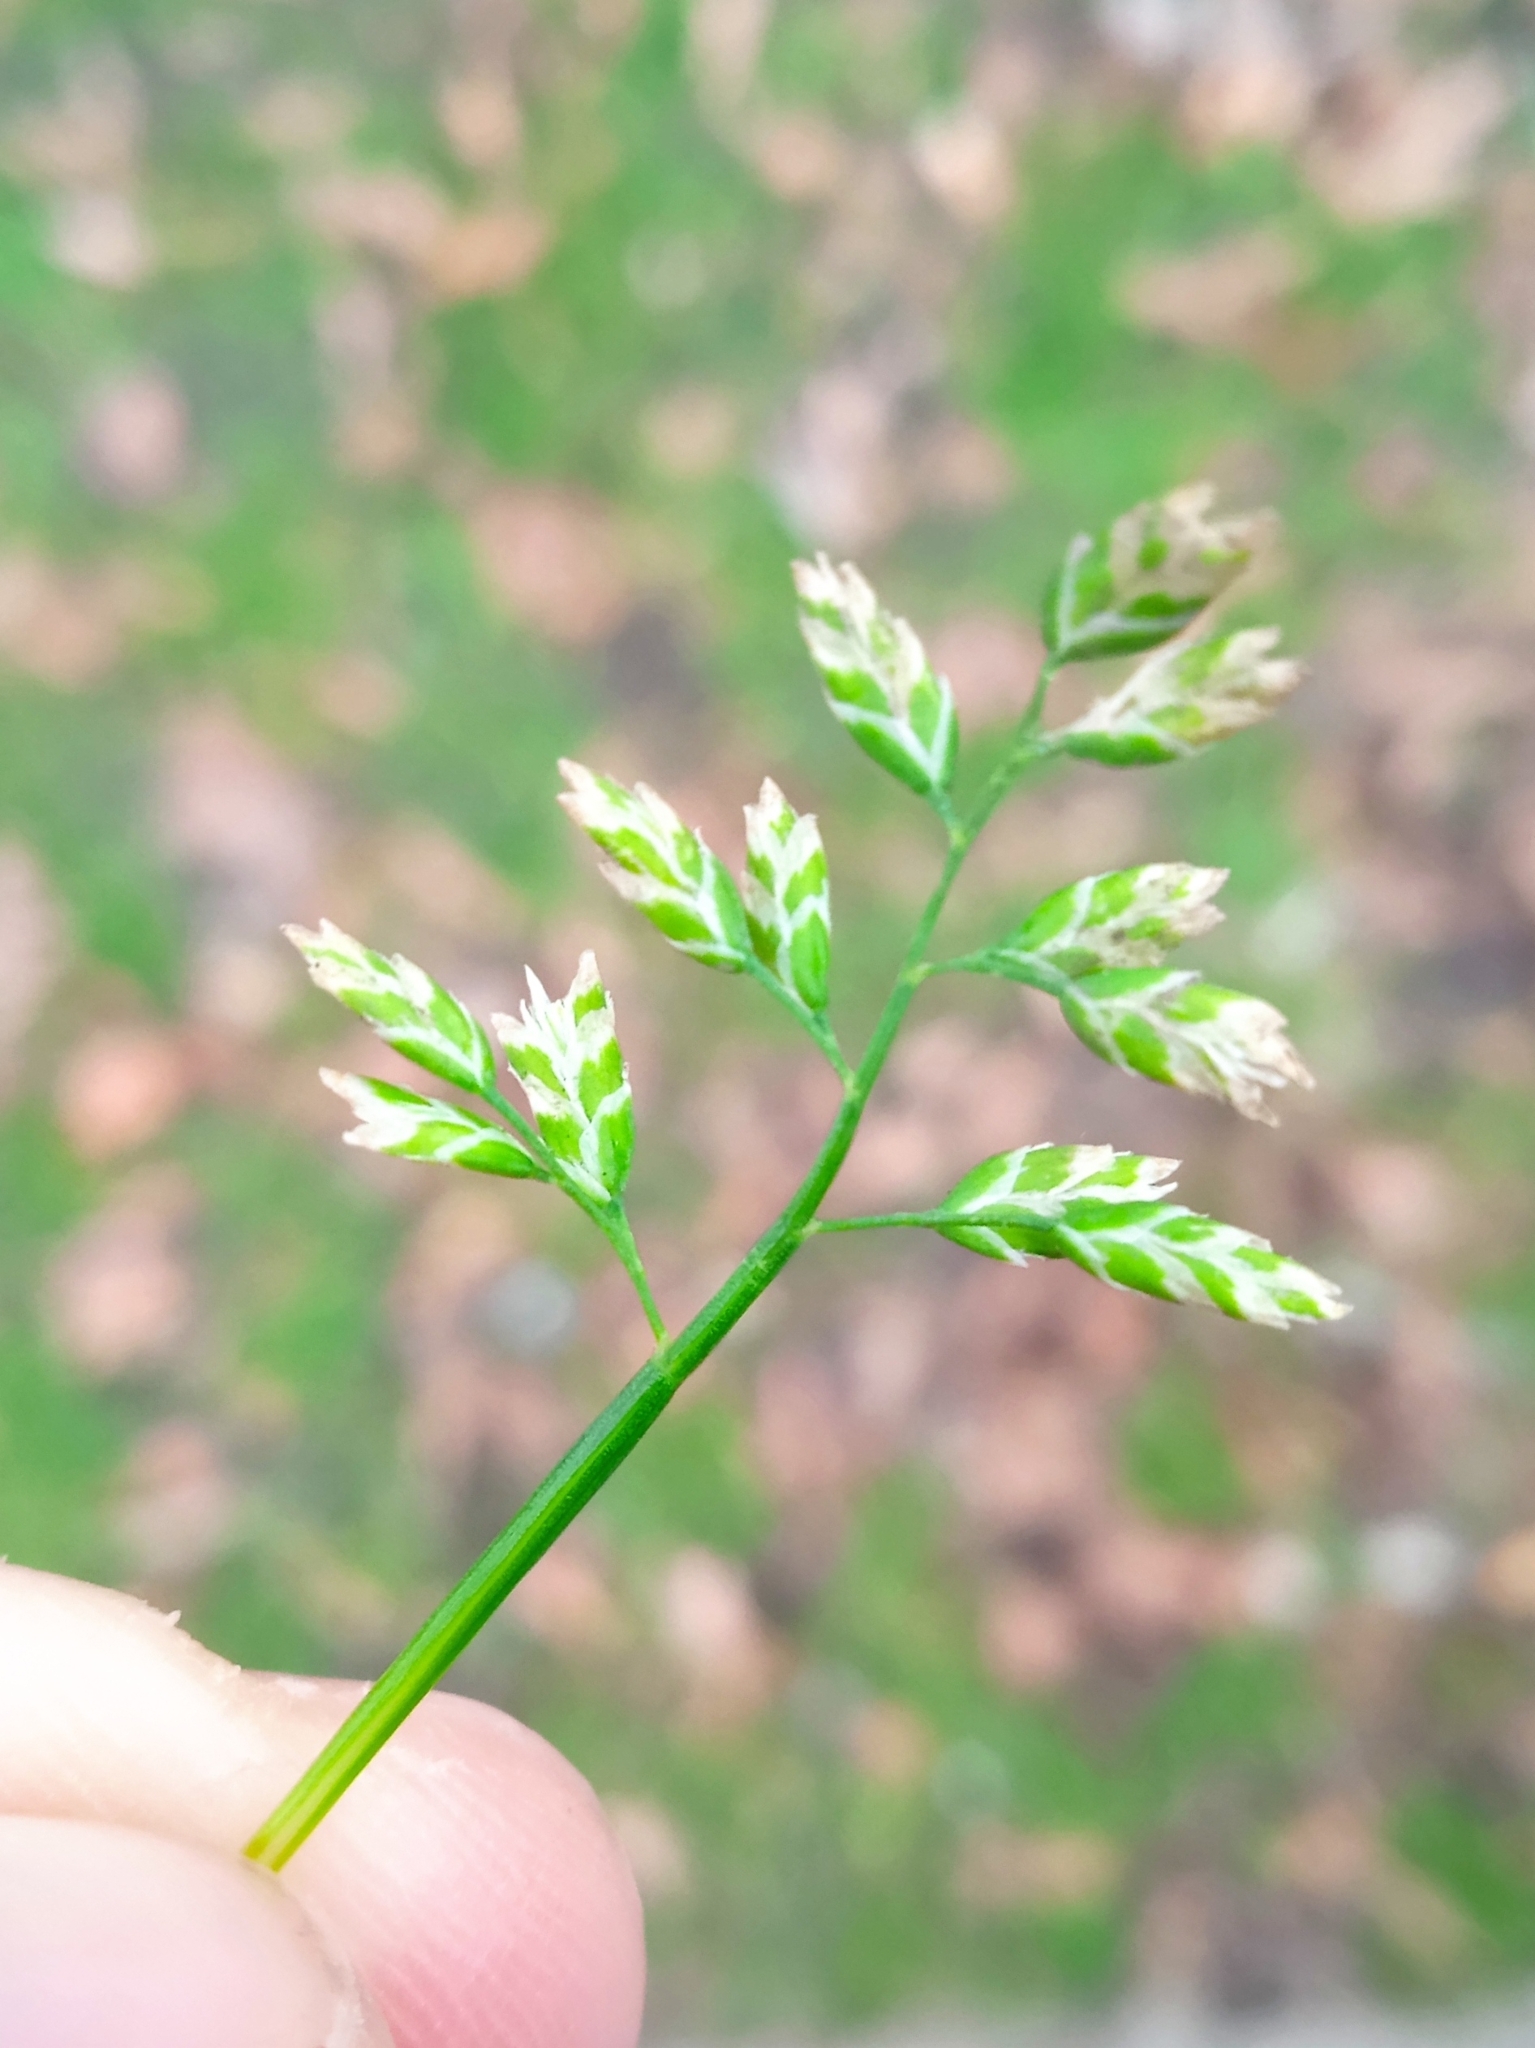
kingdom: Plantae
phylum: Tracheophyta
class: Liliopsida
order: Poales
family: Poaceae
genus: Poa
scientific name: Poa annua
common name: Annual bluegrass
